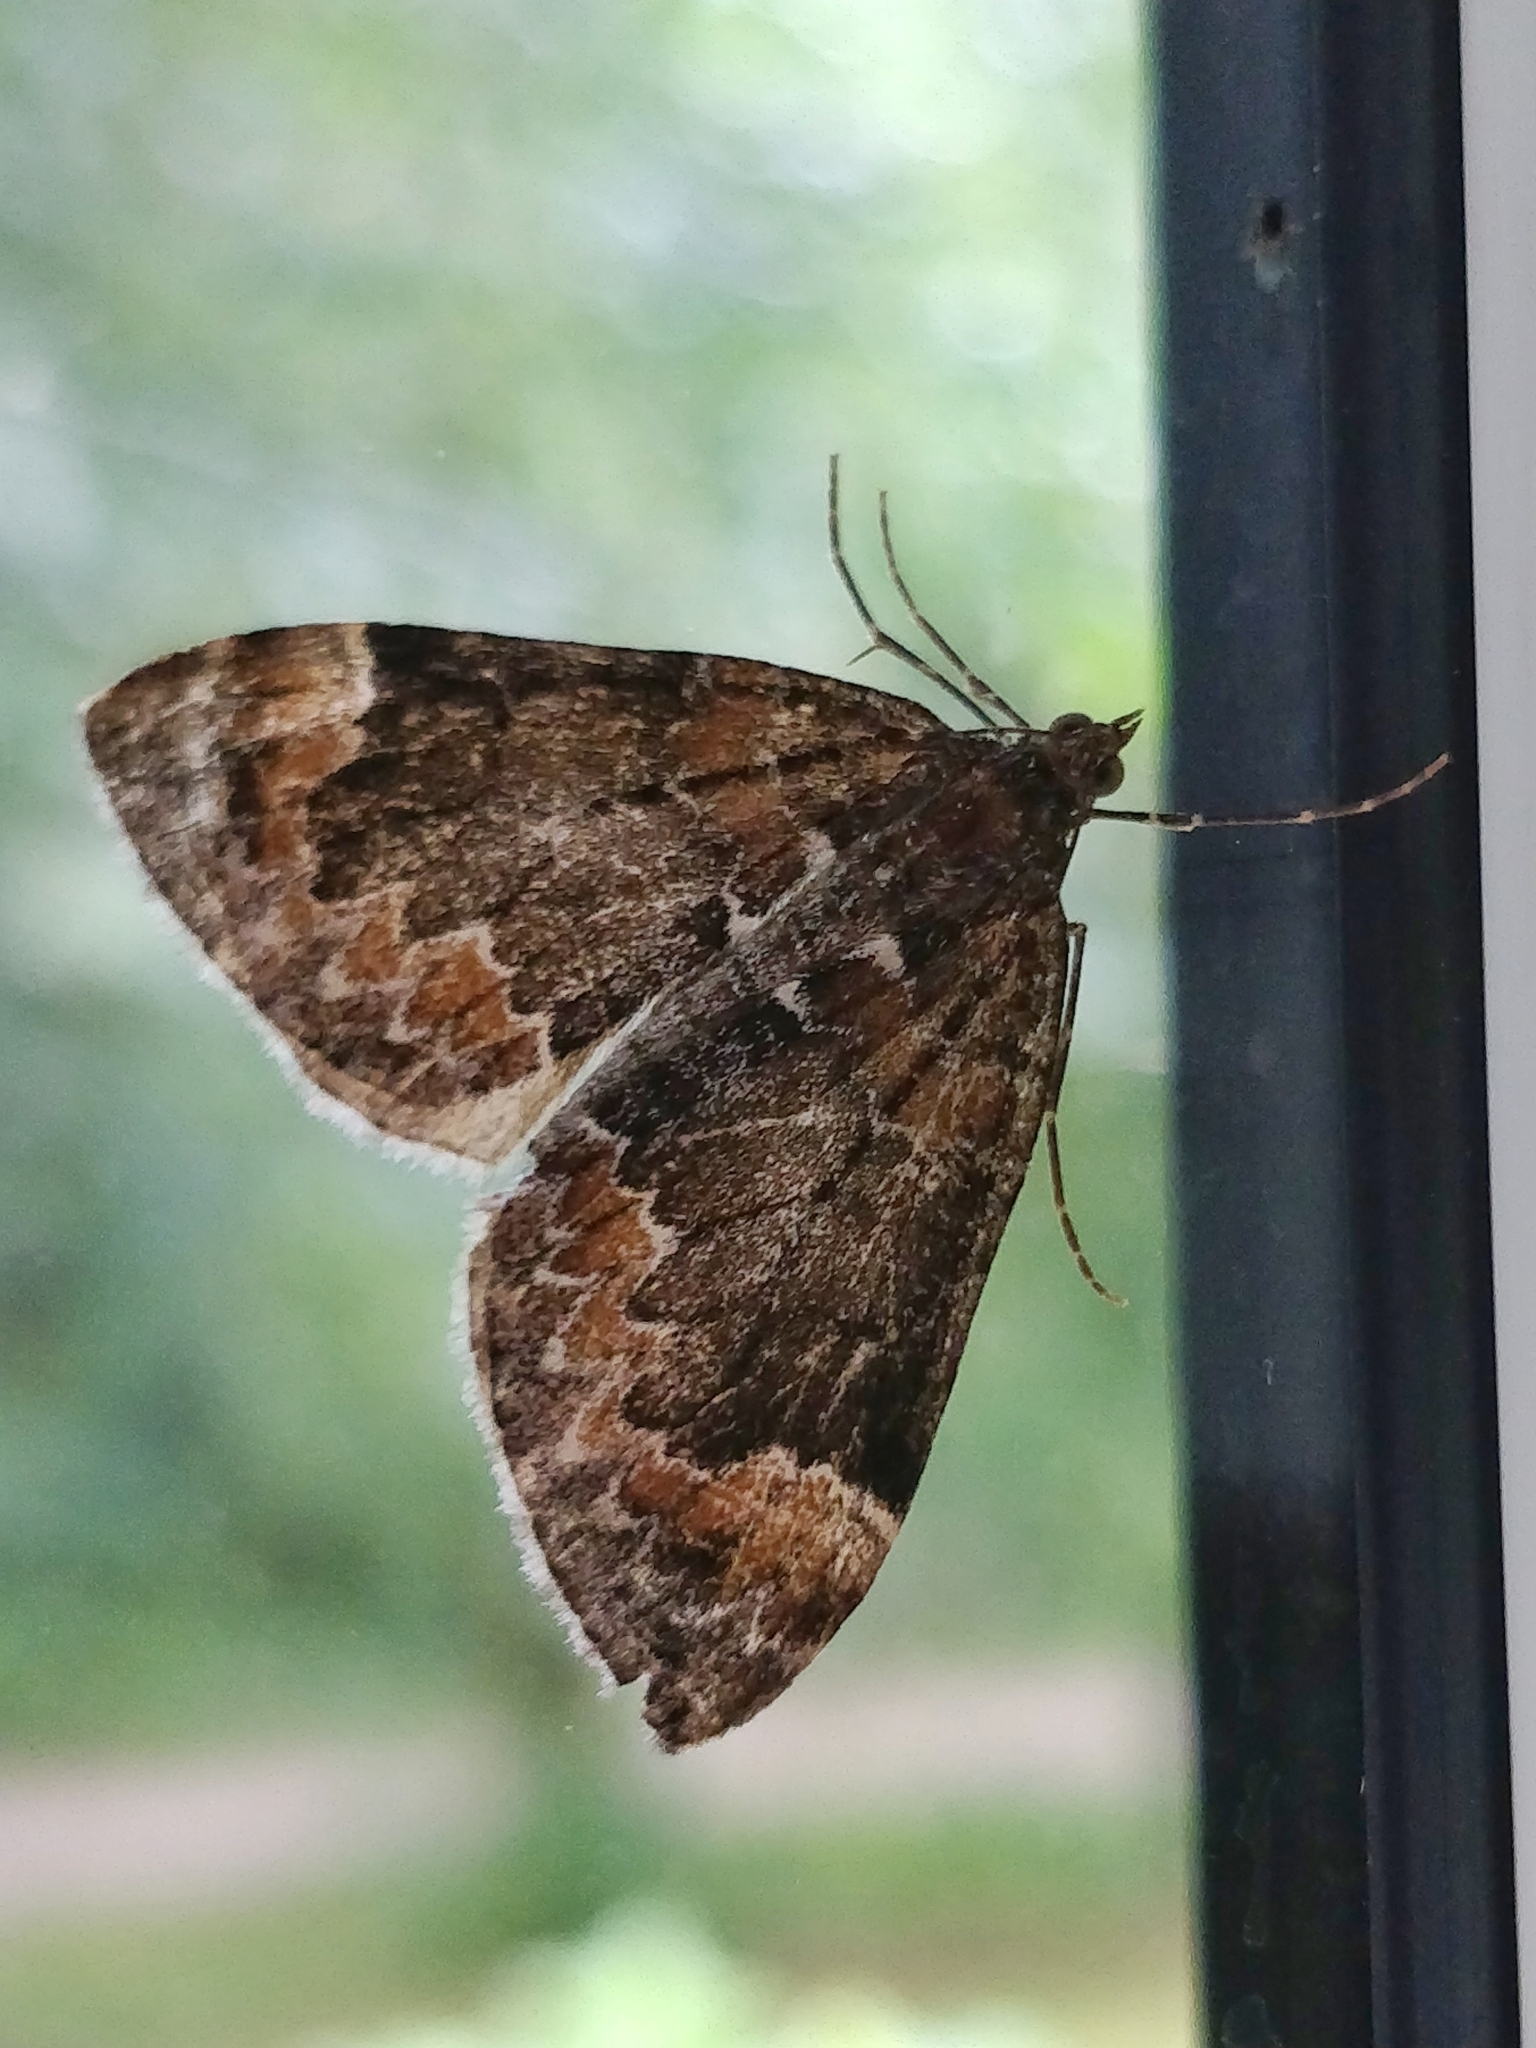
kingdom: Animalia
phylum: Arthropoda
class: Insecta
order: Lepidoptera
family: Geometridae
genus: Dysstroma
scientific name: Dysstroma truncata
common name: Common marbled carpet
